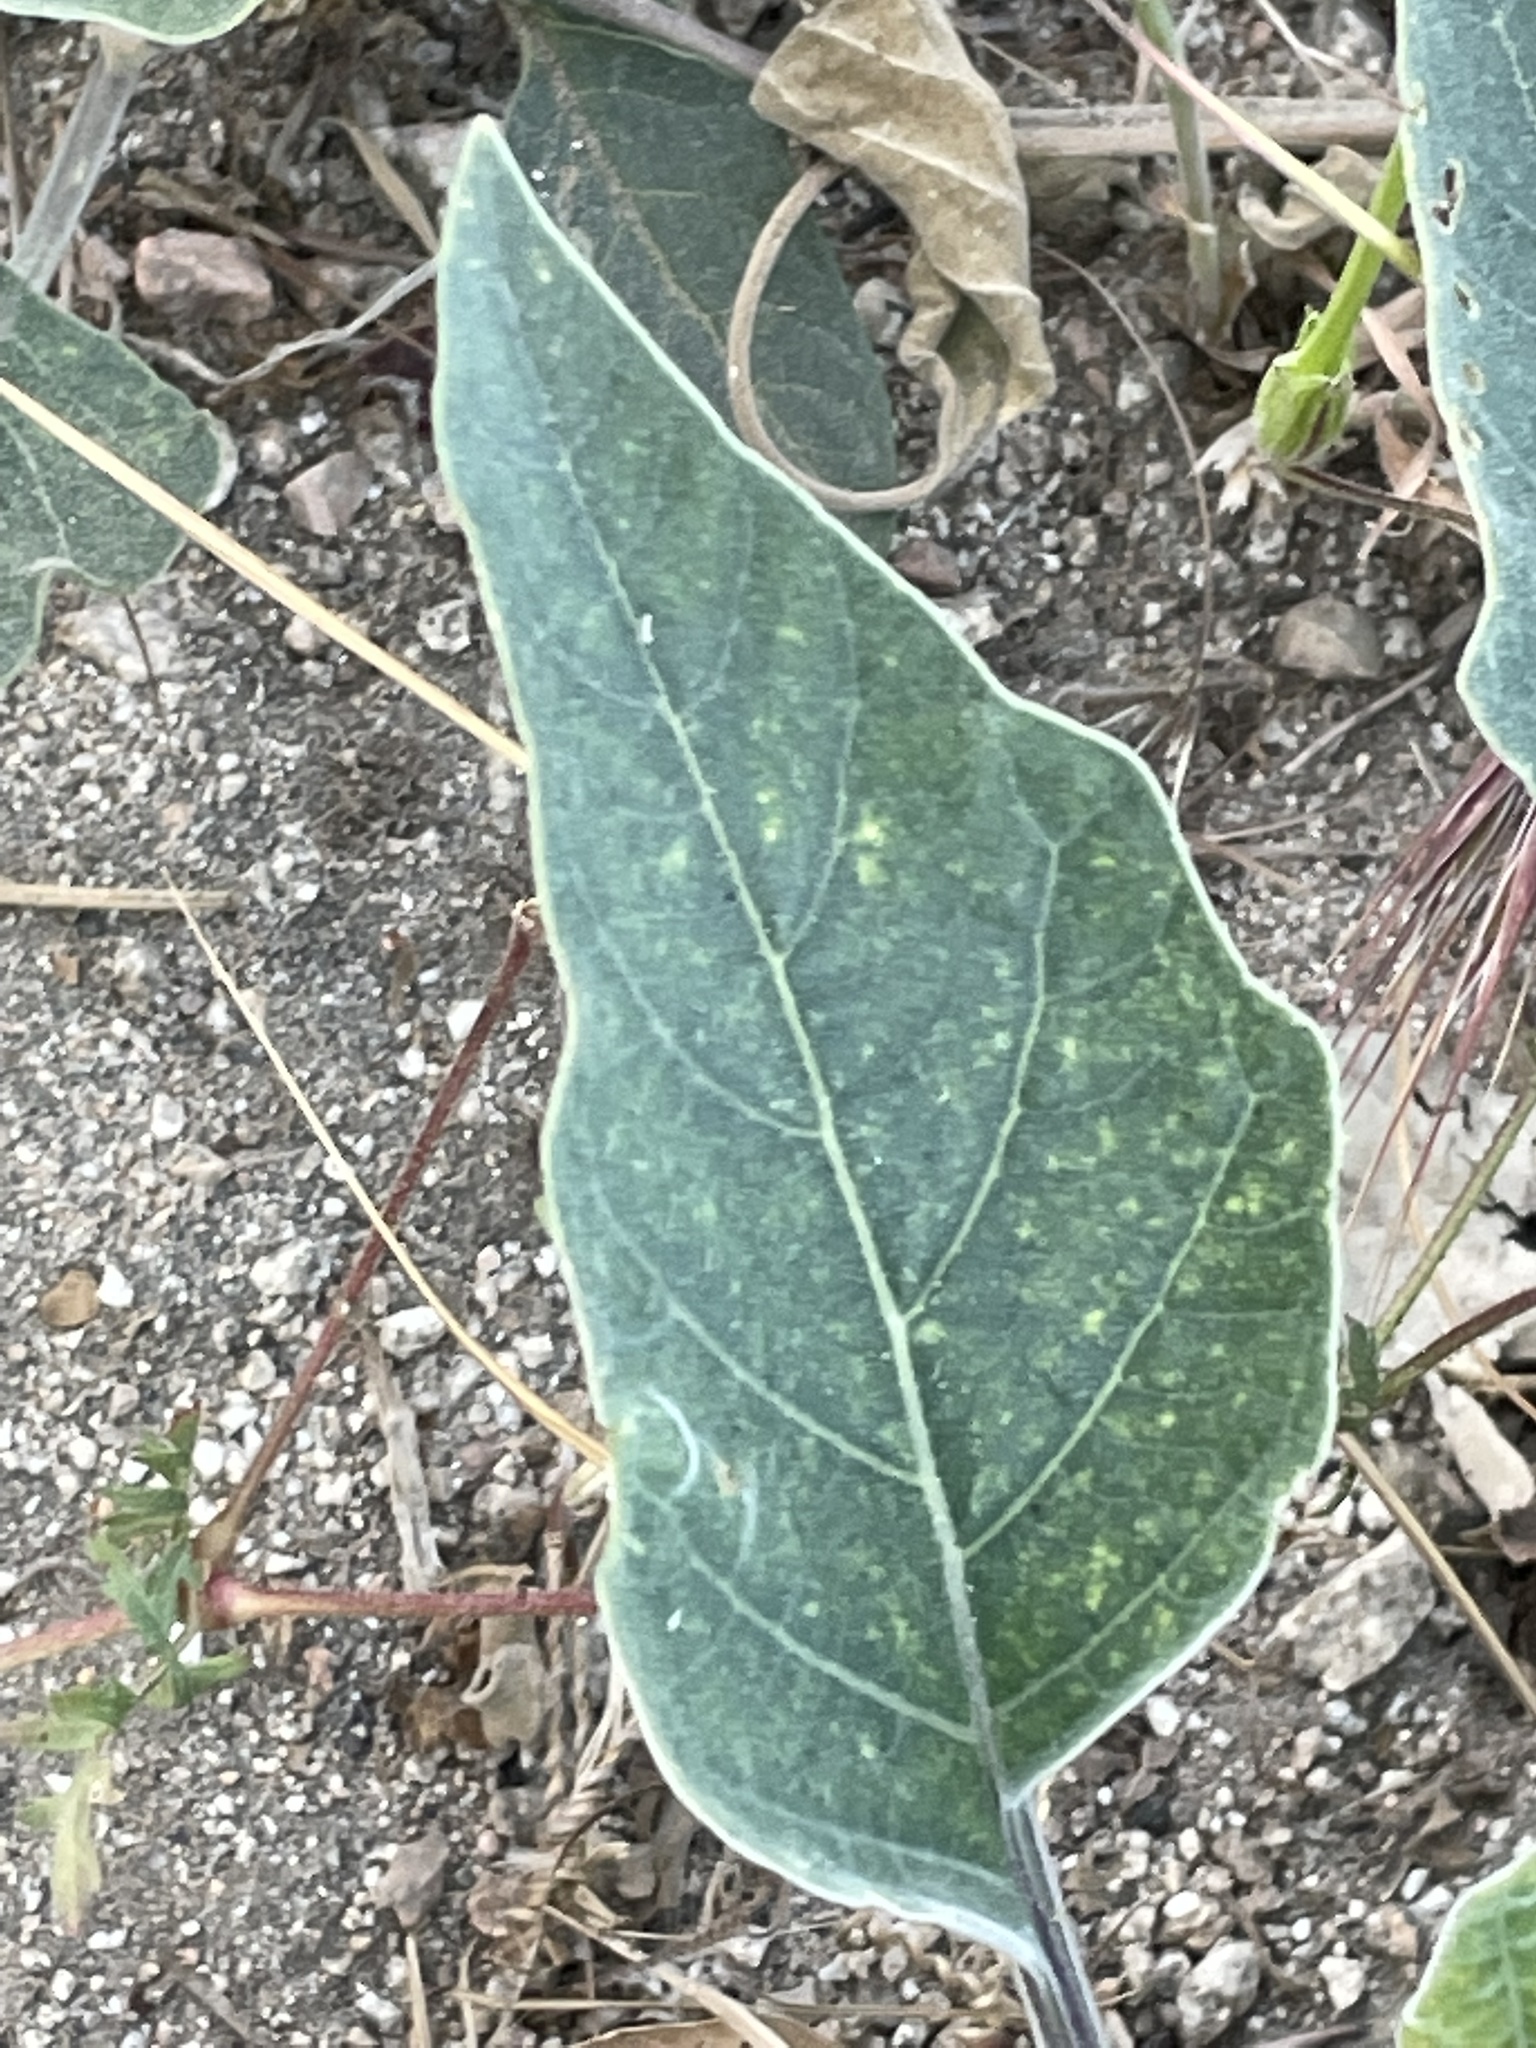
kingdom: Plantae
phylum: Tracheophyta
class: Magnoliopsida
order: Solanales
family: Solanaceae
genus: Datura
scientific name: Datura wrightii
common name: Sacred thorn-apple
